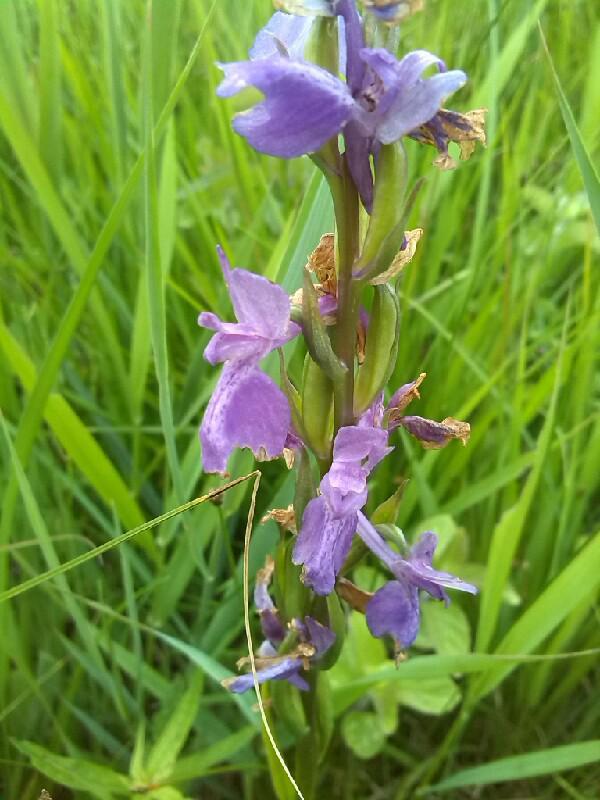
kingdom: Plantae
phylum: Tracheophyta
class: Liliopsida
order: Asparagales
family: Orchidaceae
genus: Anacamptis
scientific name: Anacamptis palustris
